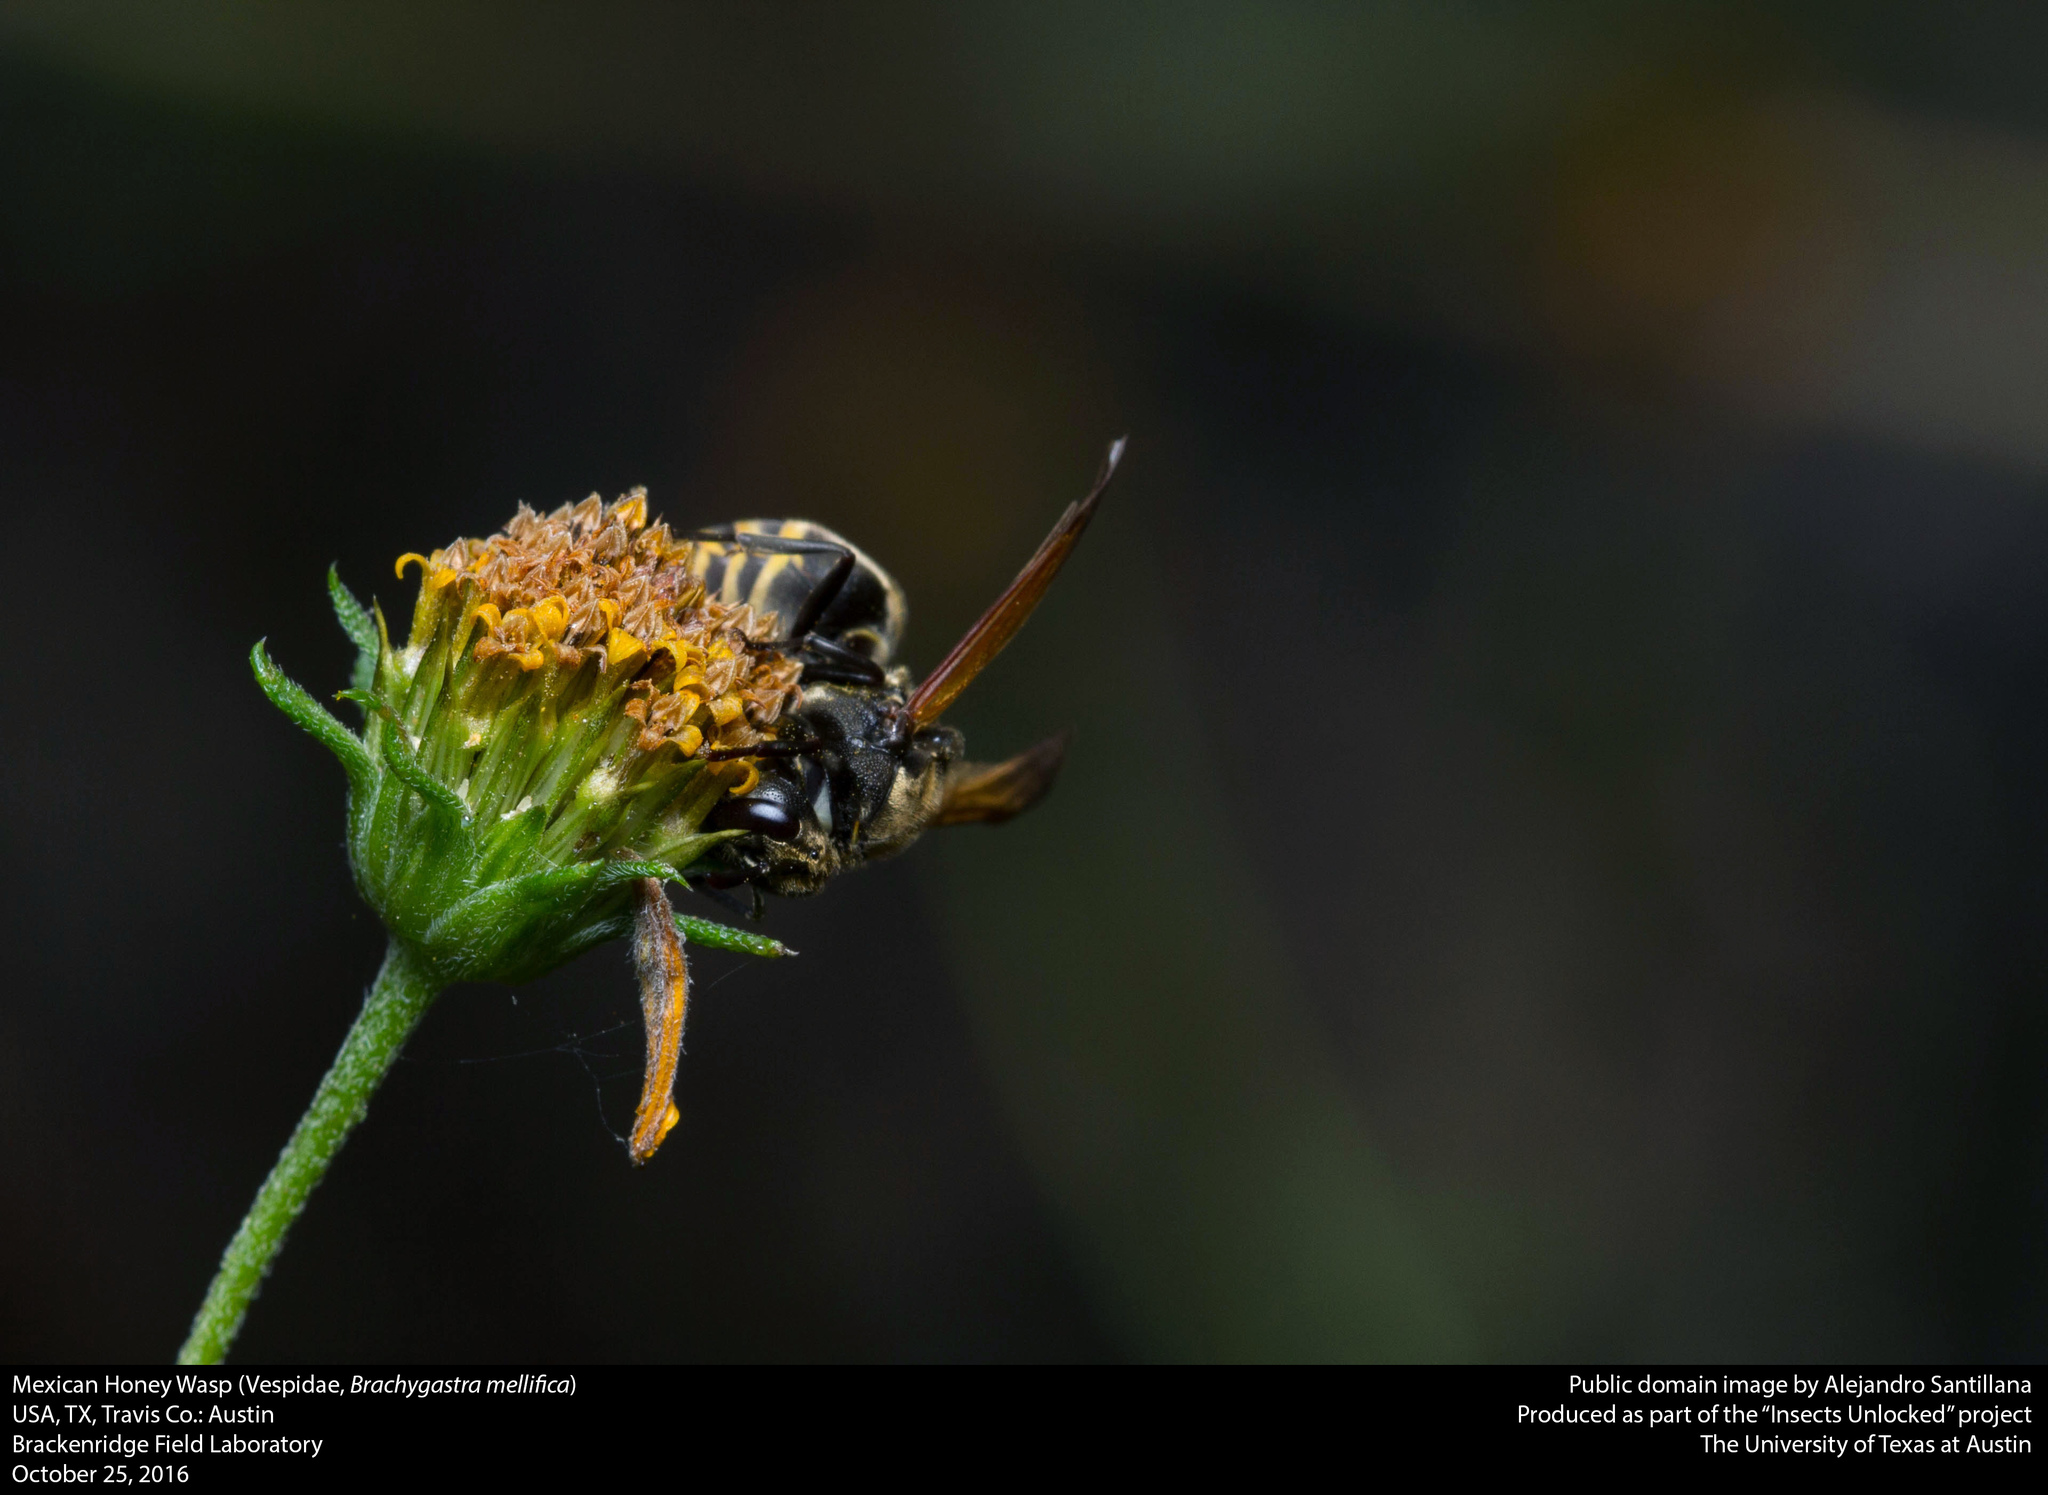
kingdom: Animalia
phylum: Arthropoda
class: Insecta
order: Hymenoptera
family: Vespidae
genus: Brachygastra
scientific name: Brachygastra mellifica
